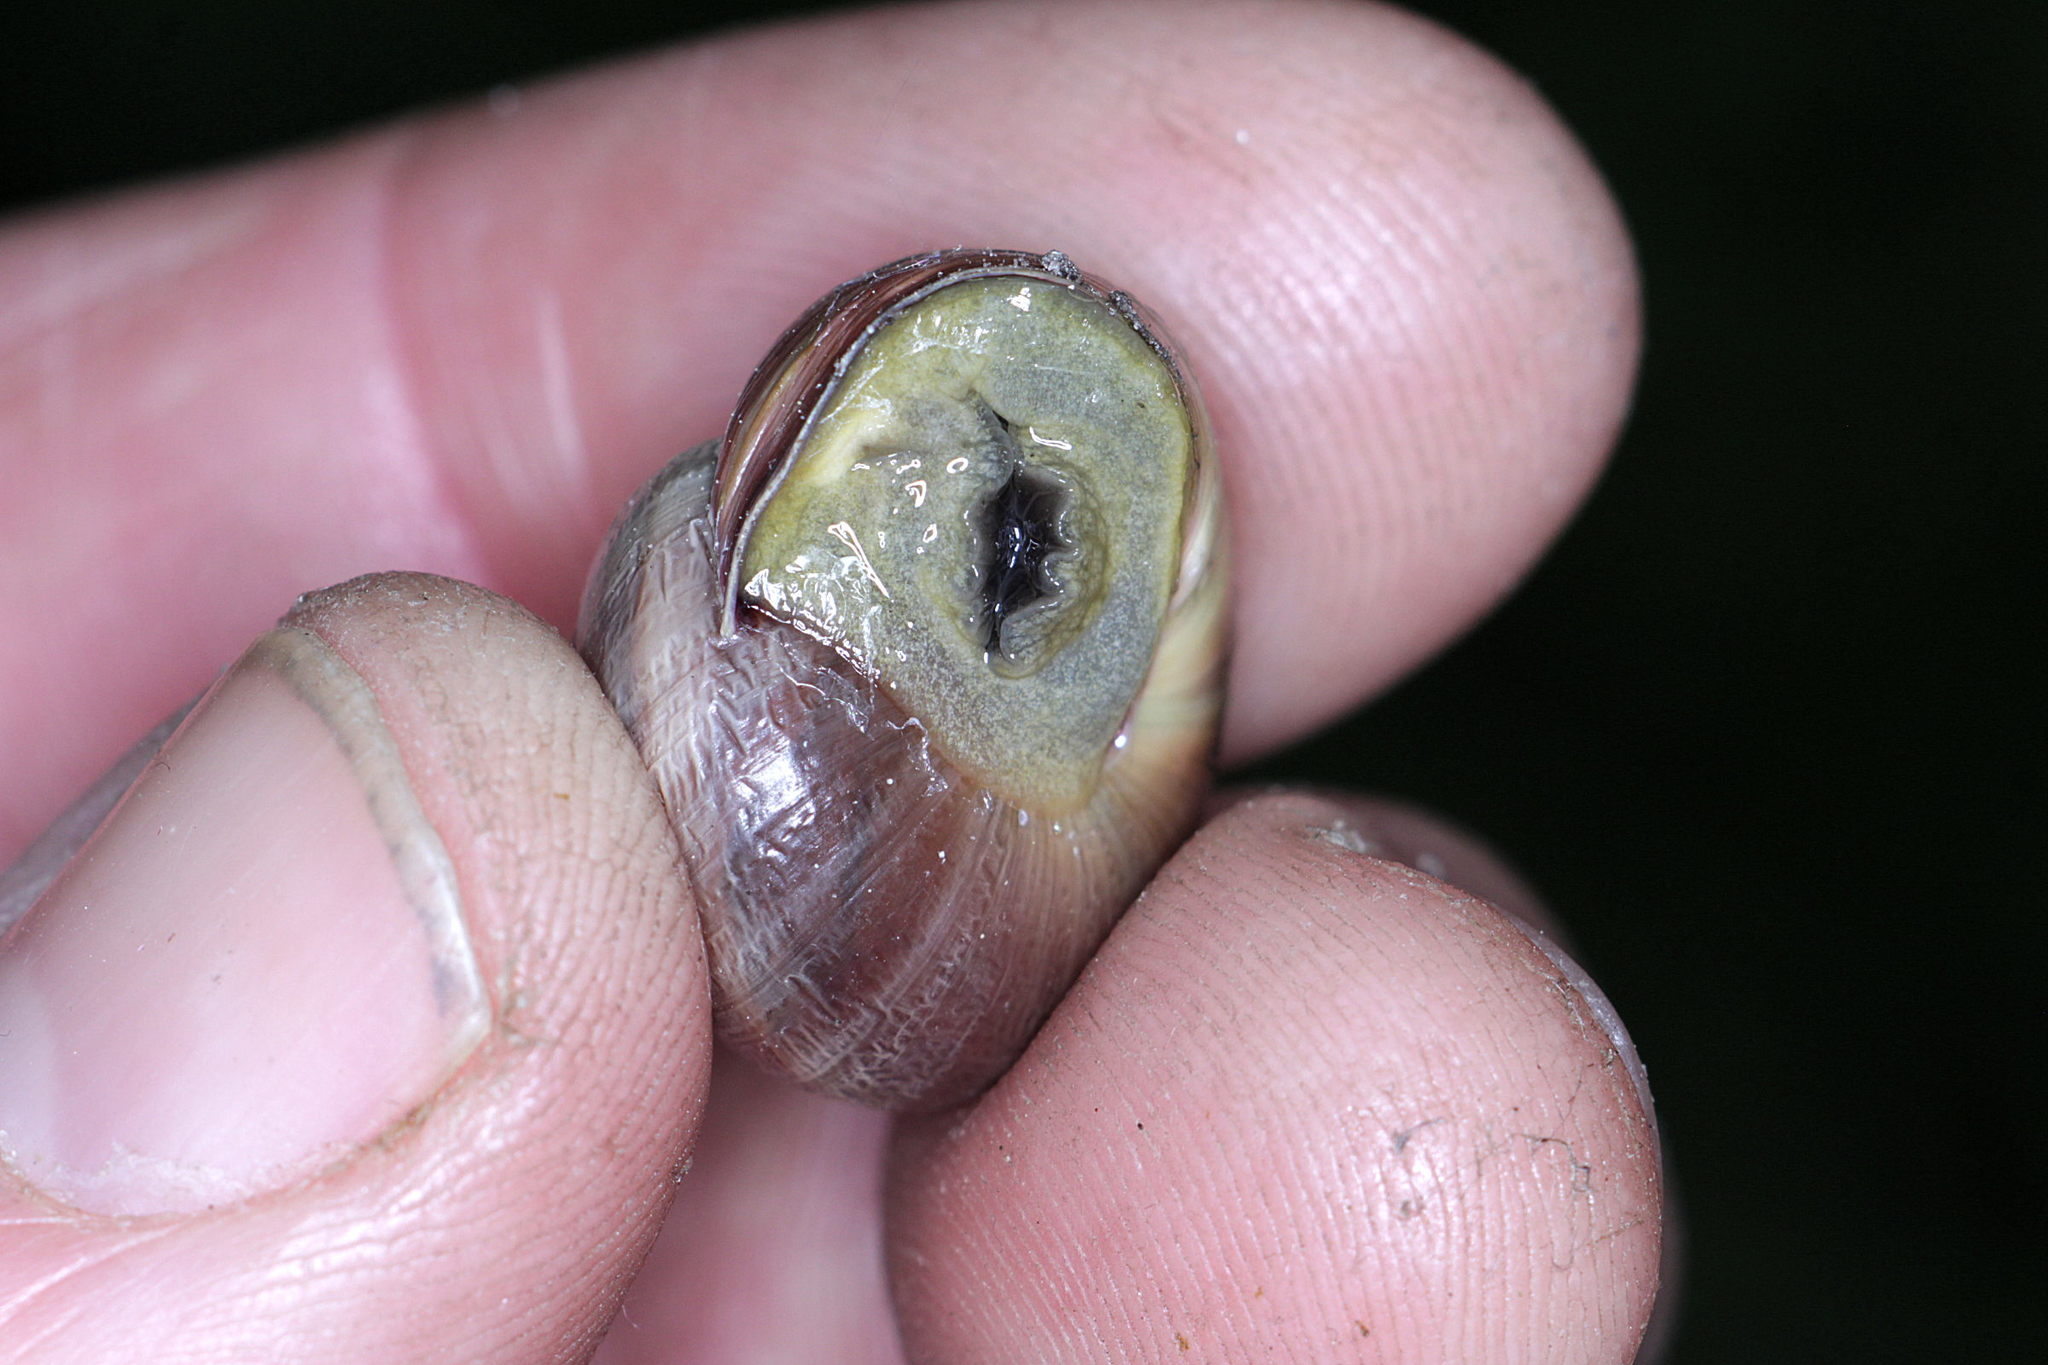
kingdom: Animalia
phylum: Mollusca
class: Gastropoda
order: Stylommatophora
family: Helicidae
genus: Cepaea
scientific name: Cepaea nemoralis
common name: Grovesnail
